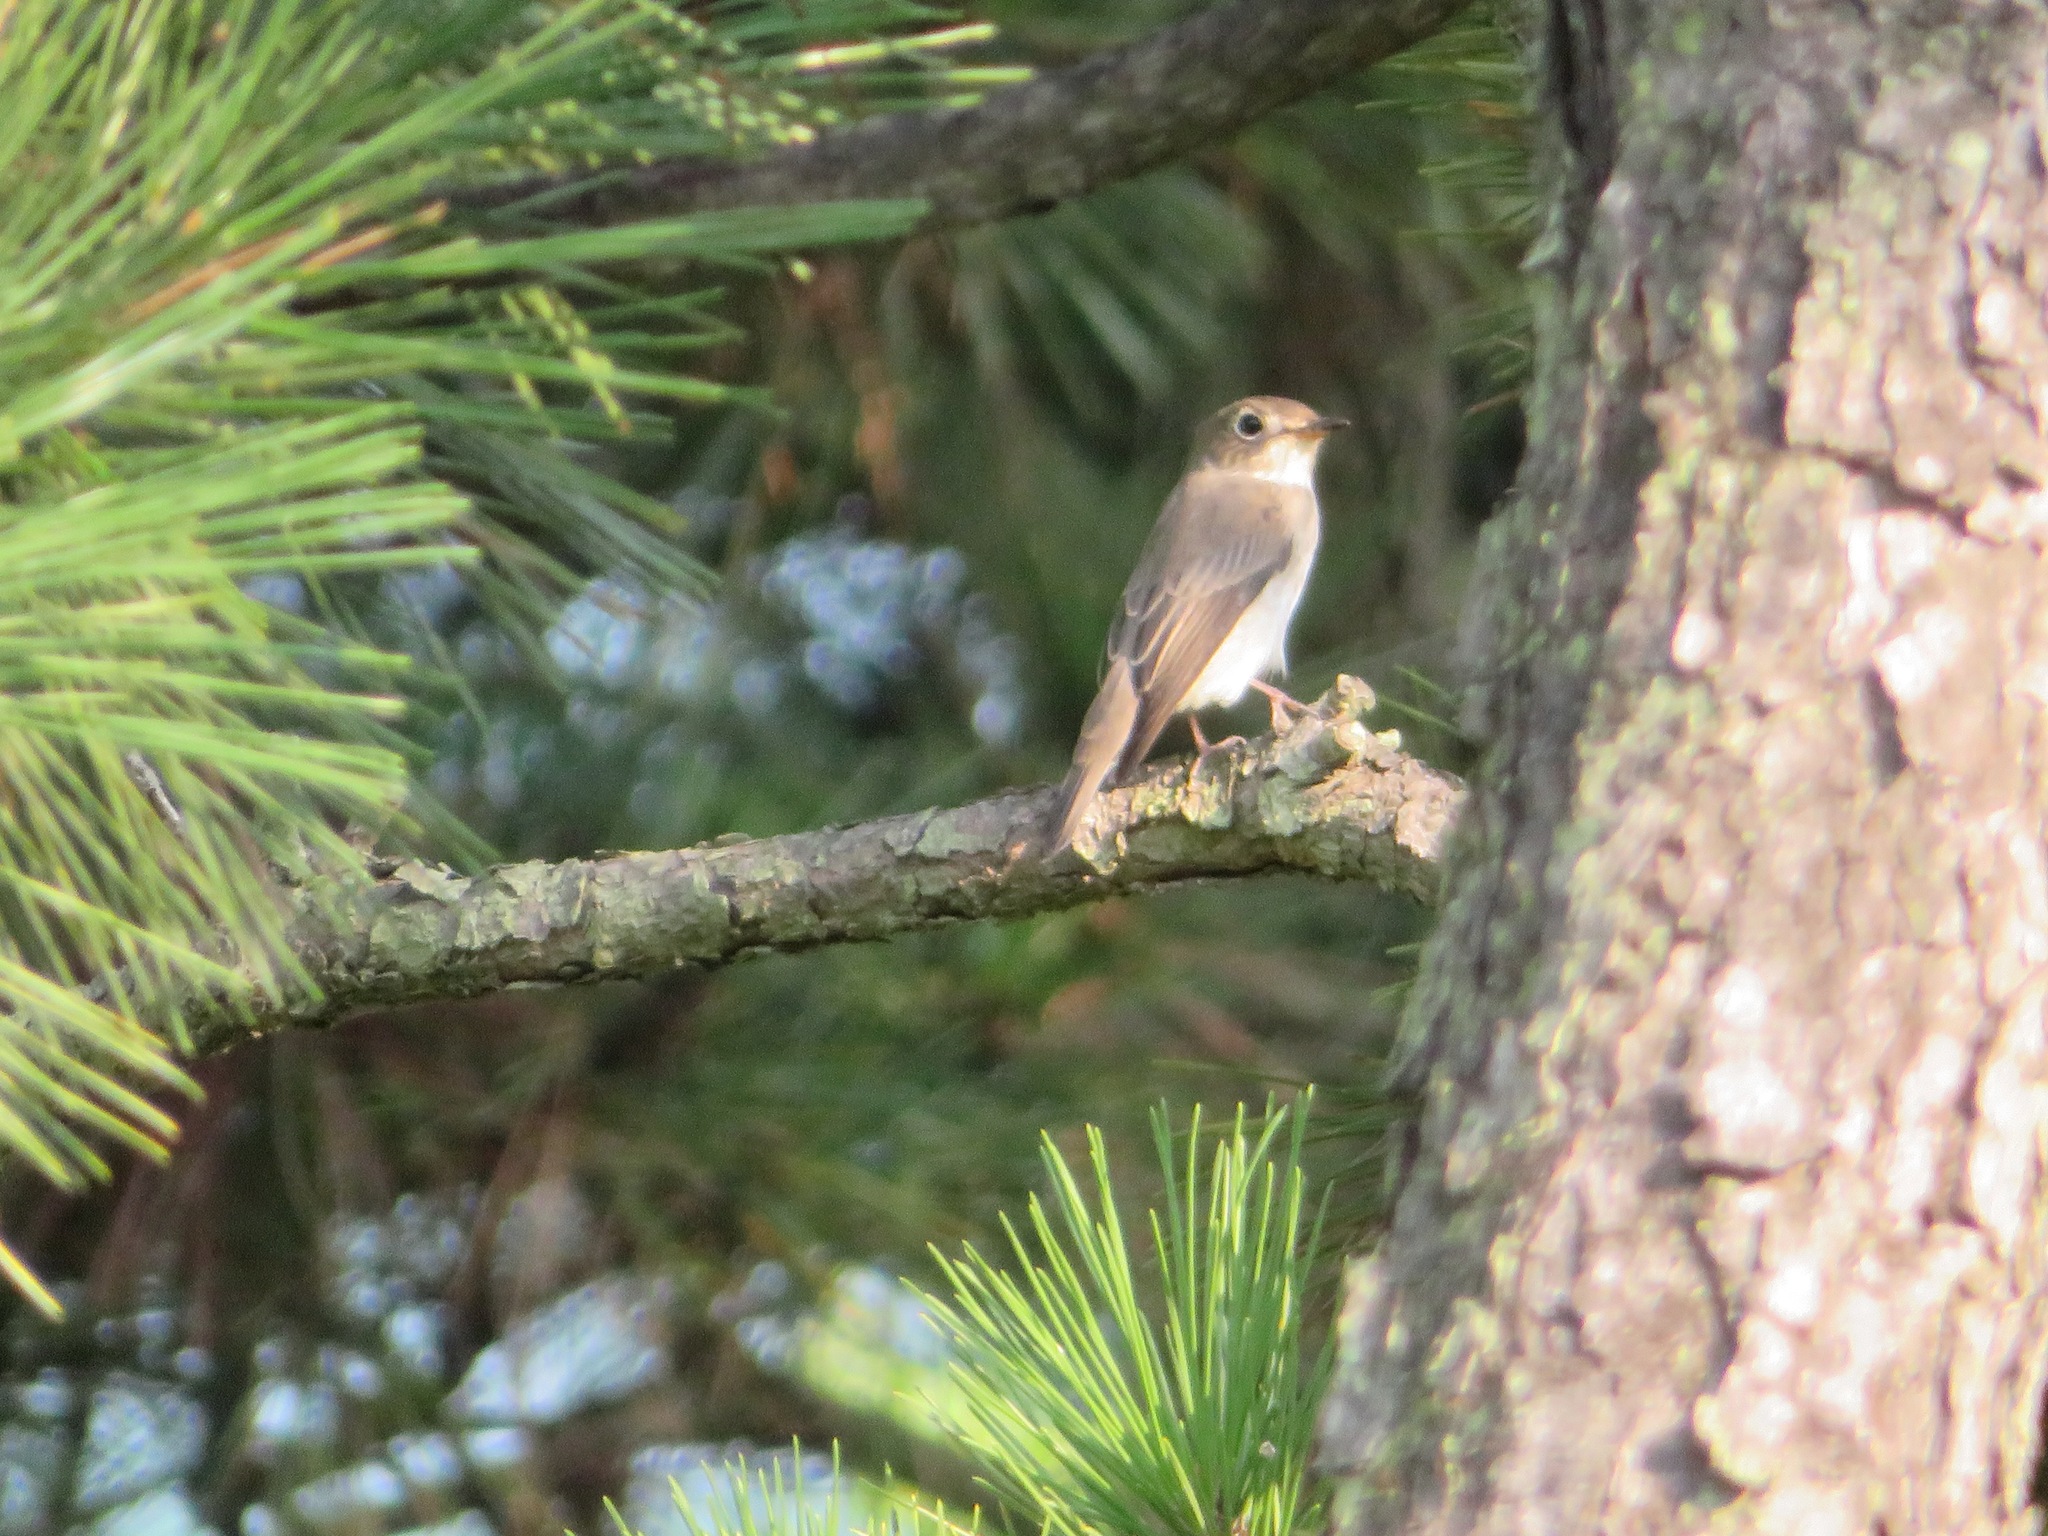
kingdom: Animalia
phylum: Chordata
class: Aves
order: Passeriformes
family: Muscicapidae
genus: Muscicapa
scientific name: Muscicapa latirostris
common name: Asian brown flycatcher
